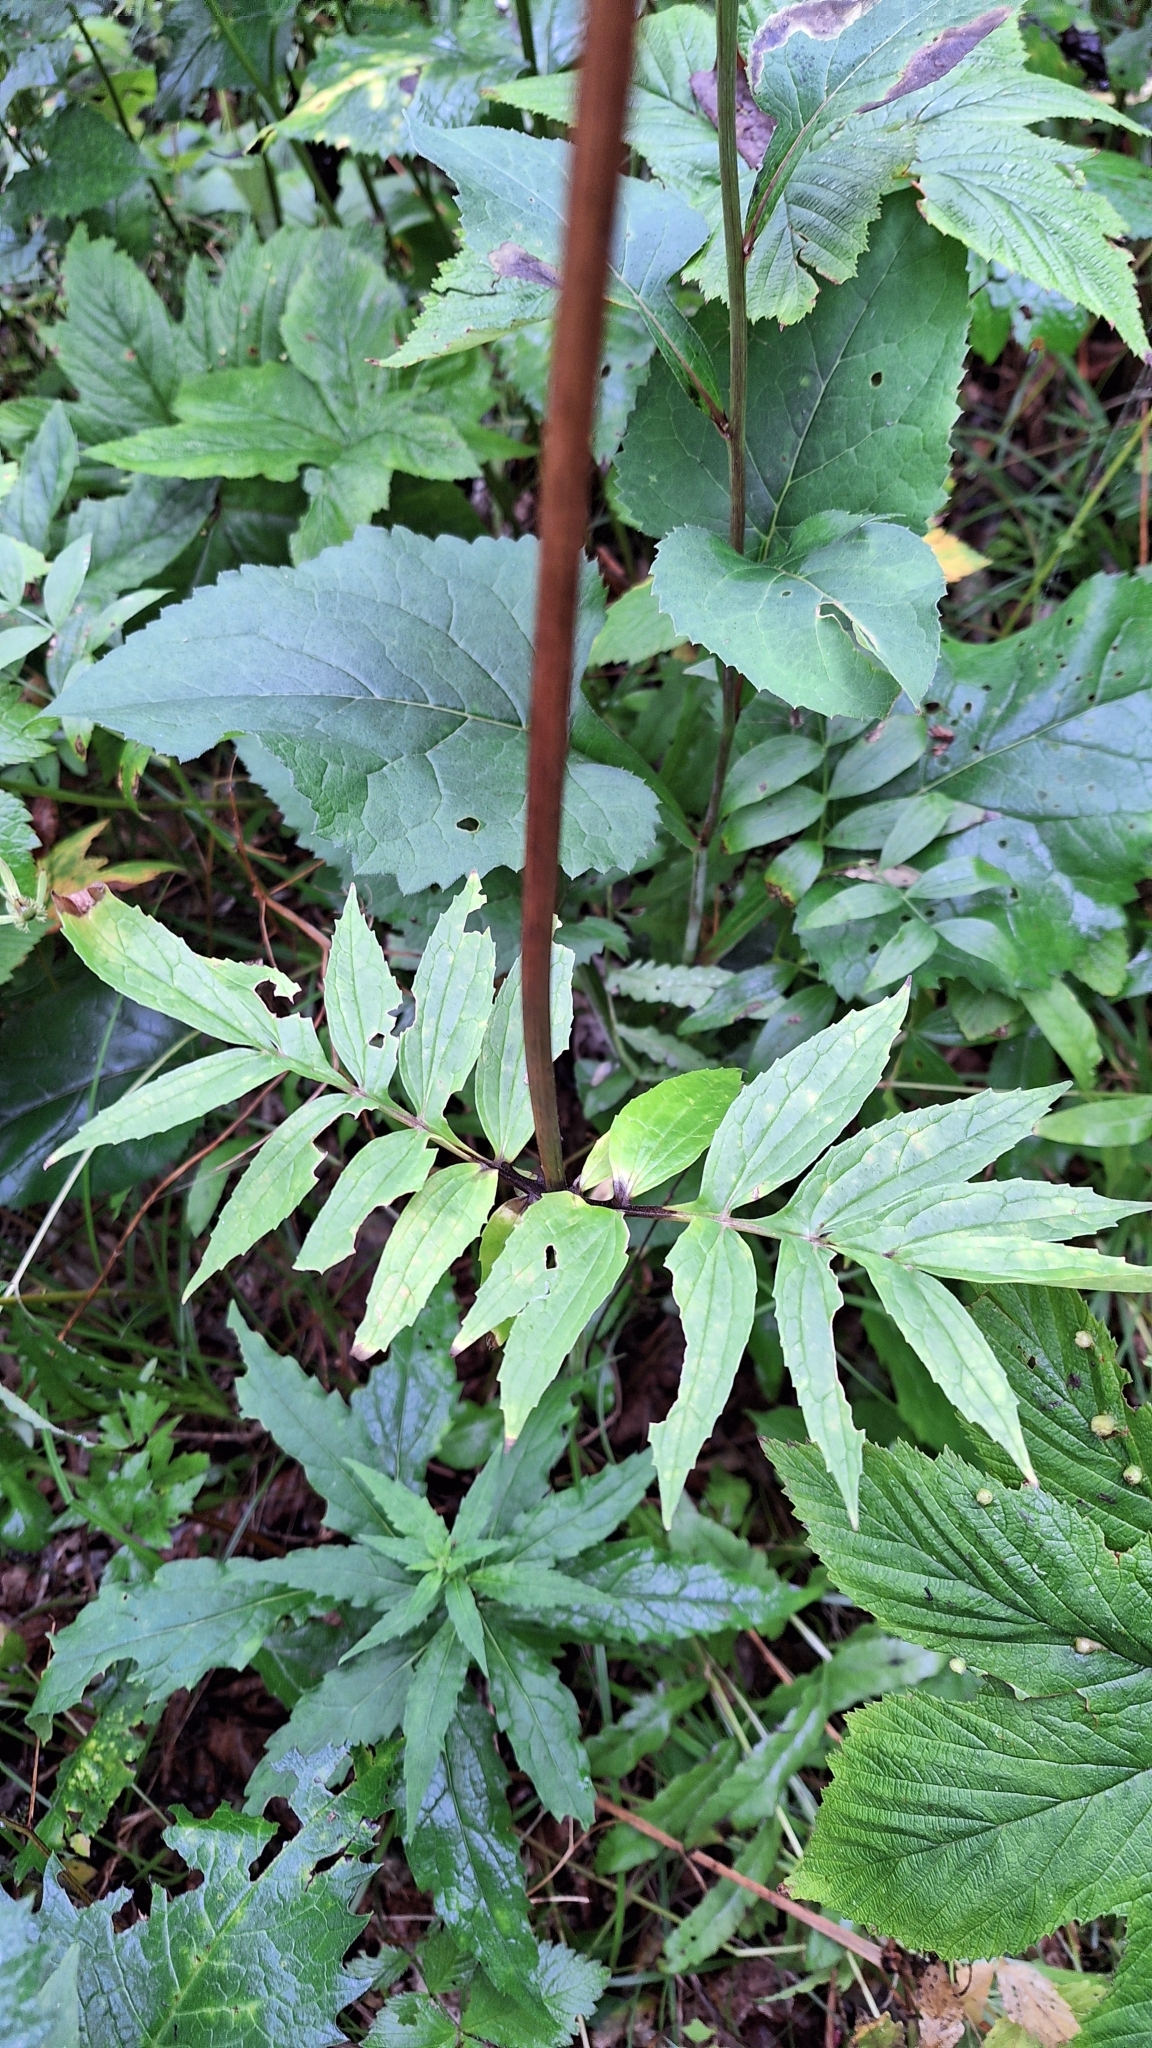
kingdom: Plantae
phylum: Tracheophyta
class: Magnoliopsida
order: Dipsacales
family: Caprifoliaceae
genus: Valeriana
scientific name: Valeriana fauriei
